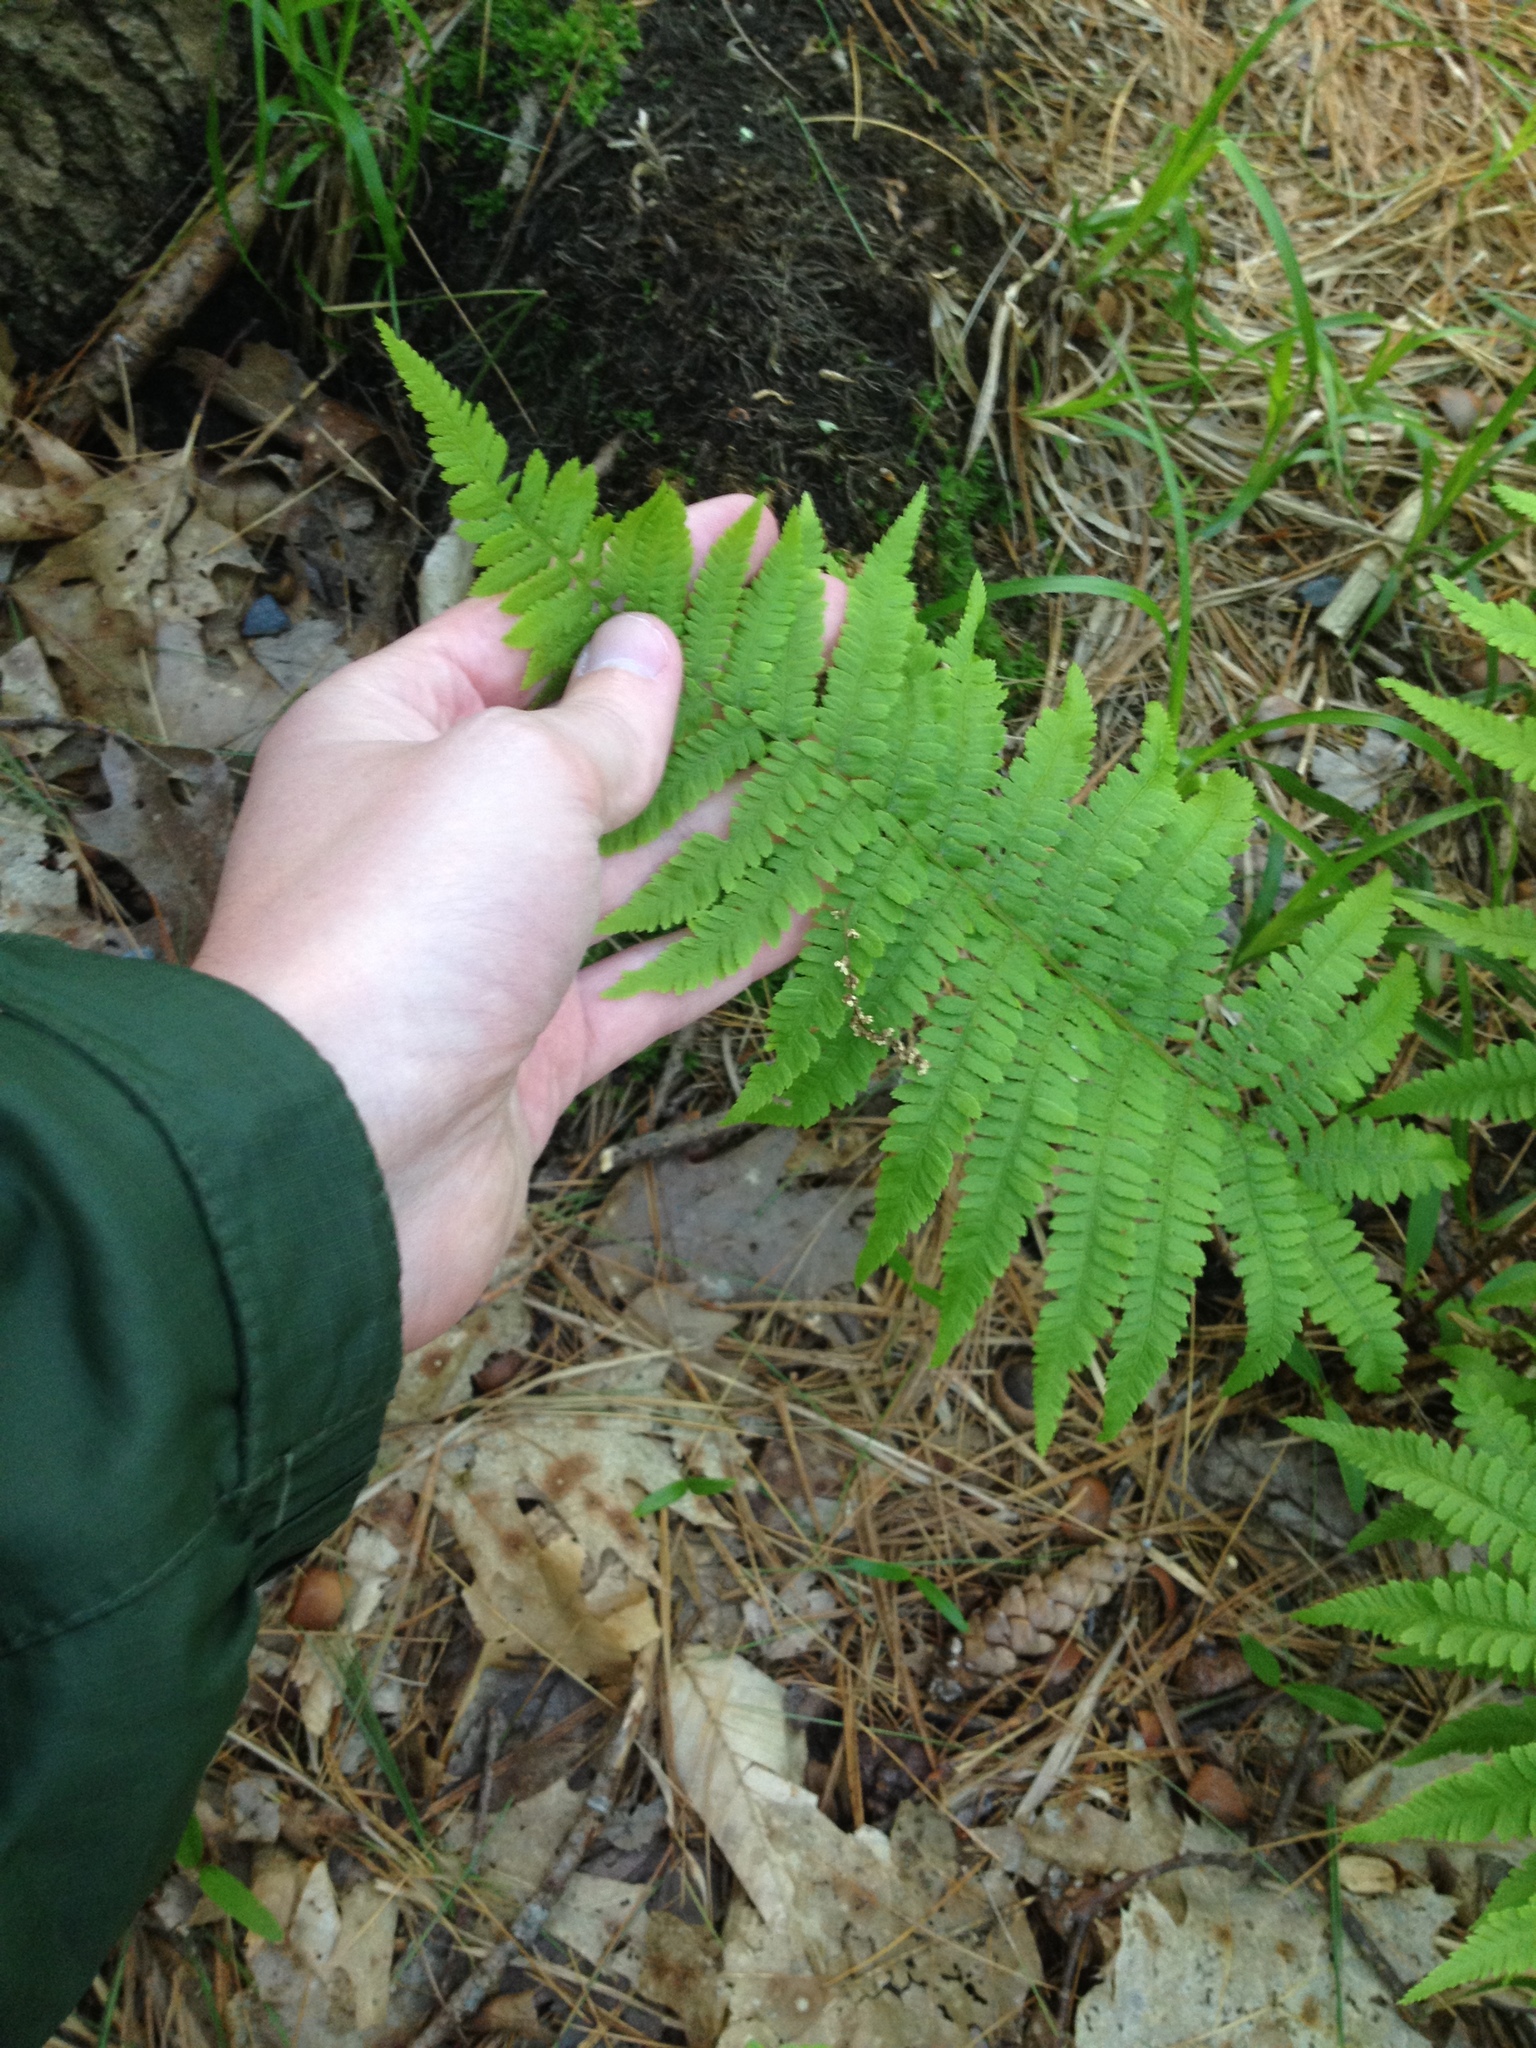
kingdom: Plantae
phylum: Tracheophyta
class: Polypodiopsida
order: Polypodiales
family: Athyriaceae
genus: Athyrium
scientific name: Athyrium angustum
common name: Northern lady fern
